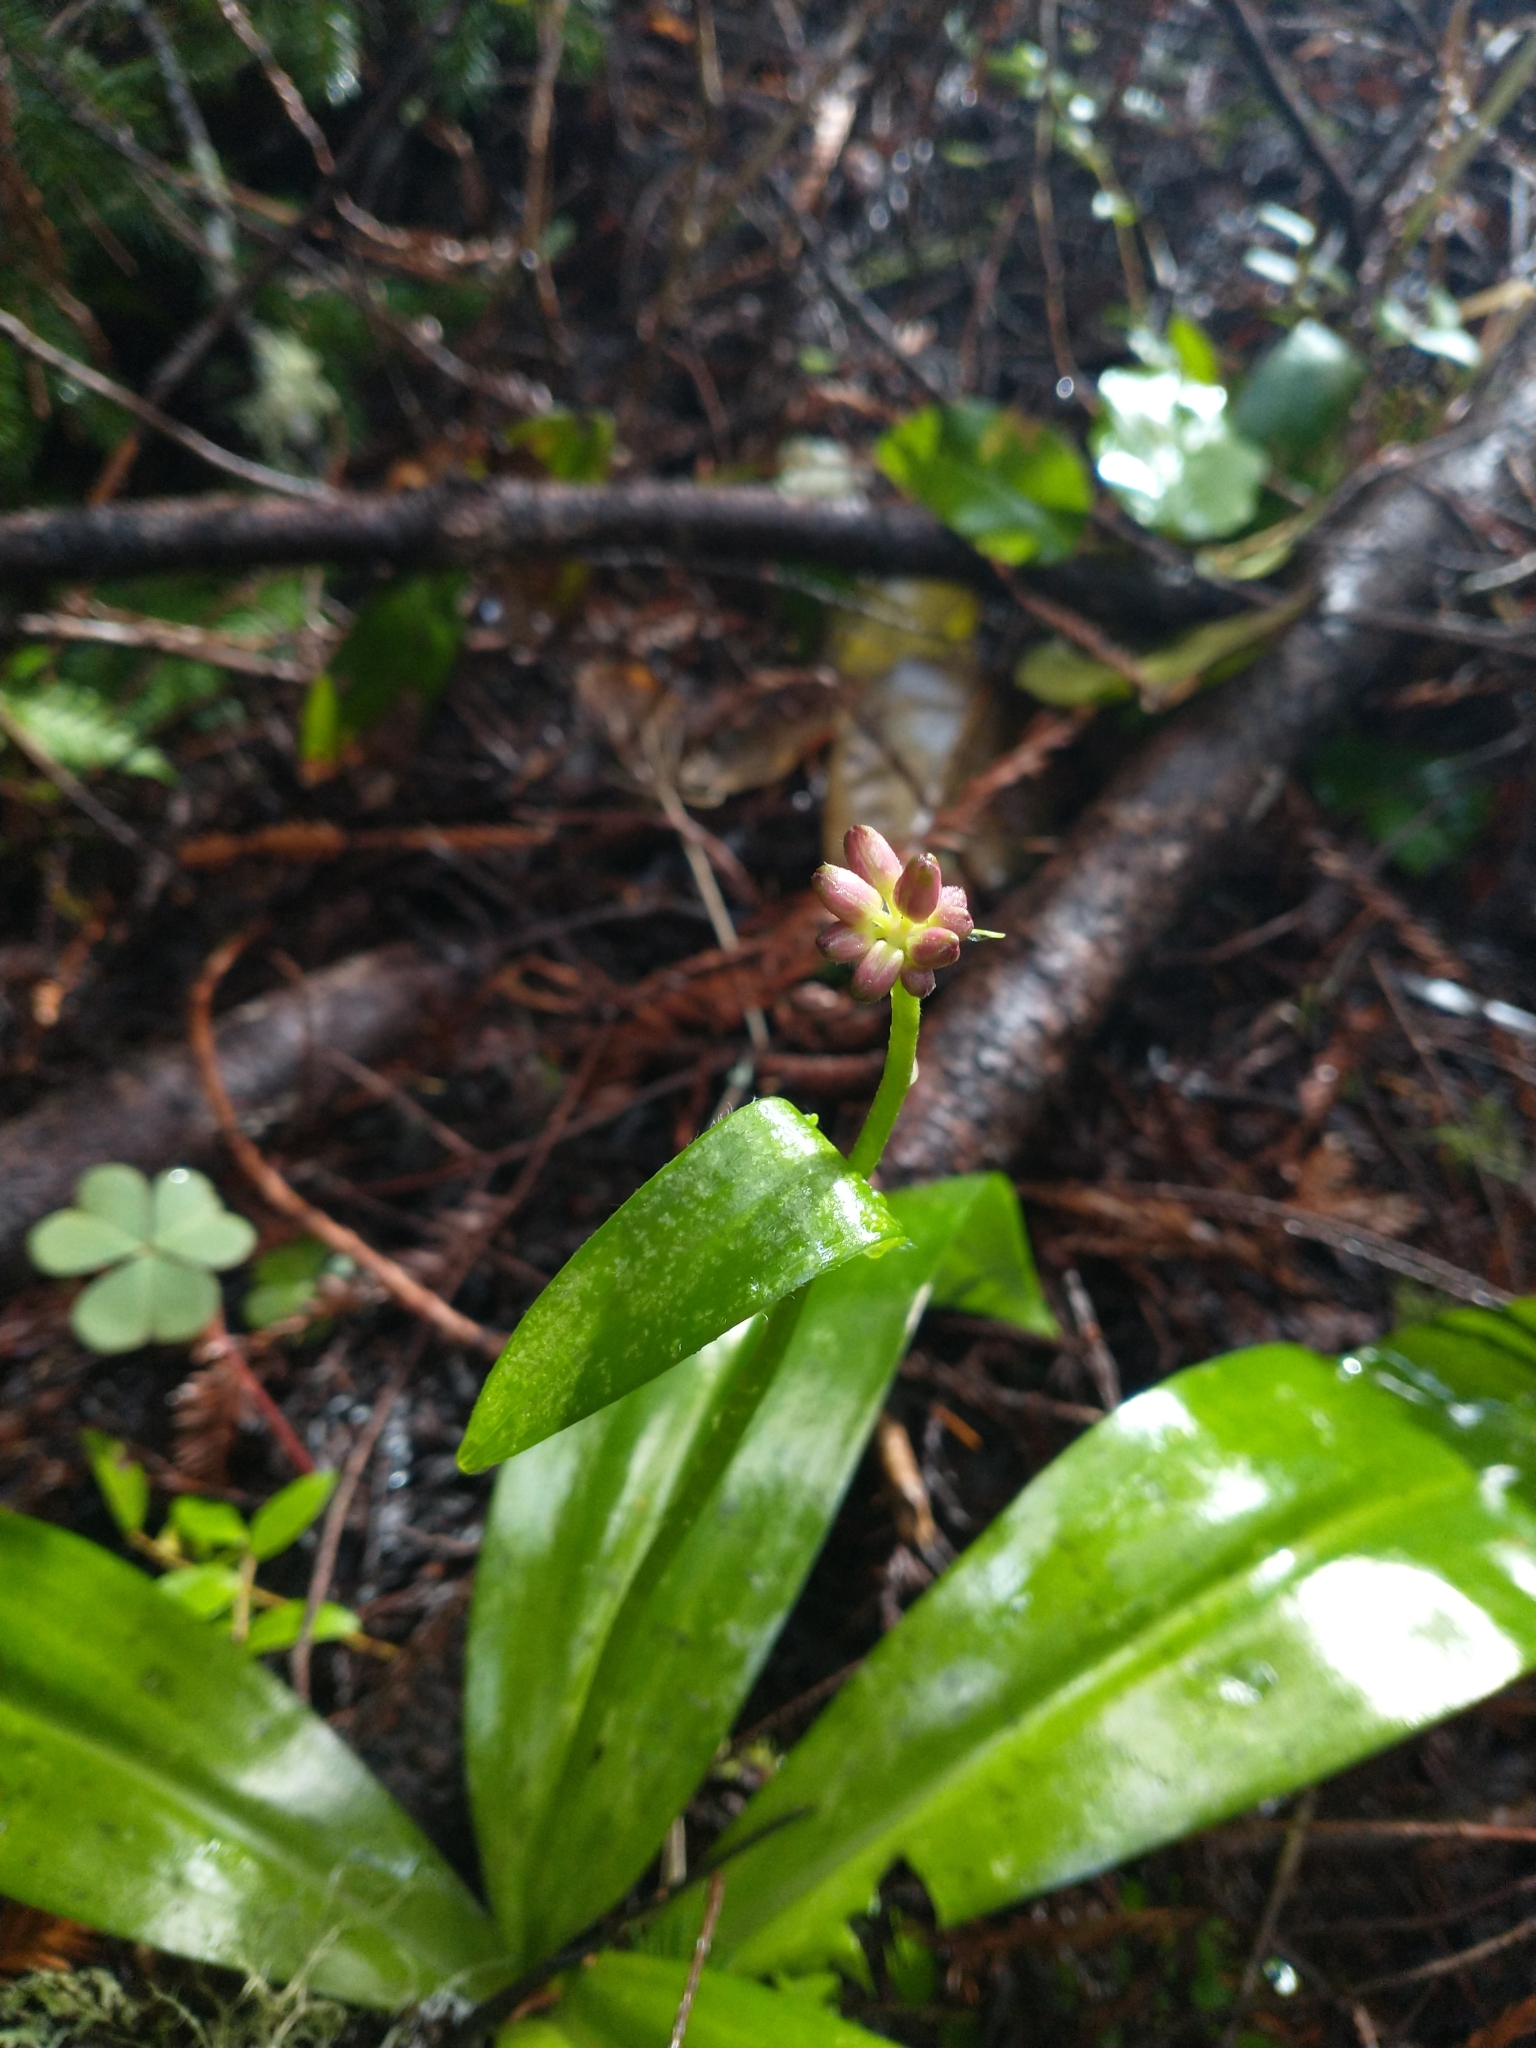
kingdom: Plantae
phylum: Tracheophyta
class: Liliopsida
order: Liliales
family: Liliaceae
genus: Clintonia
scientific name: Clintonia andrewsiana
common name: Red clintonia
